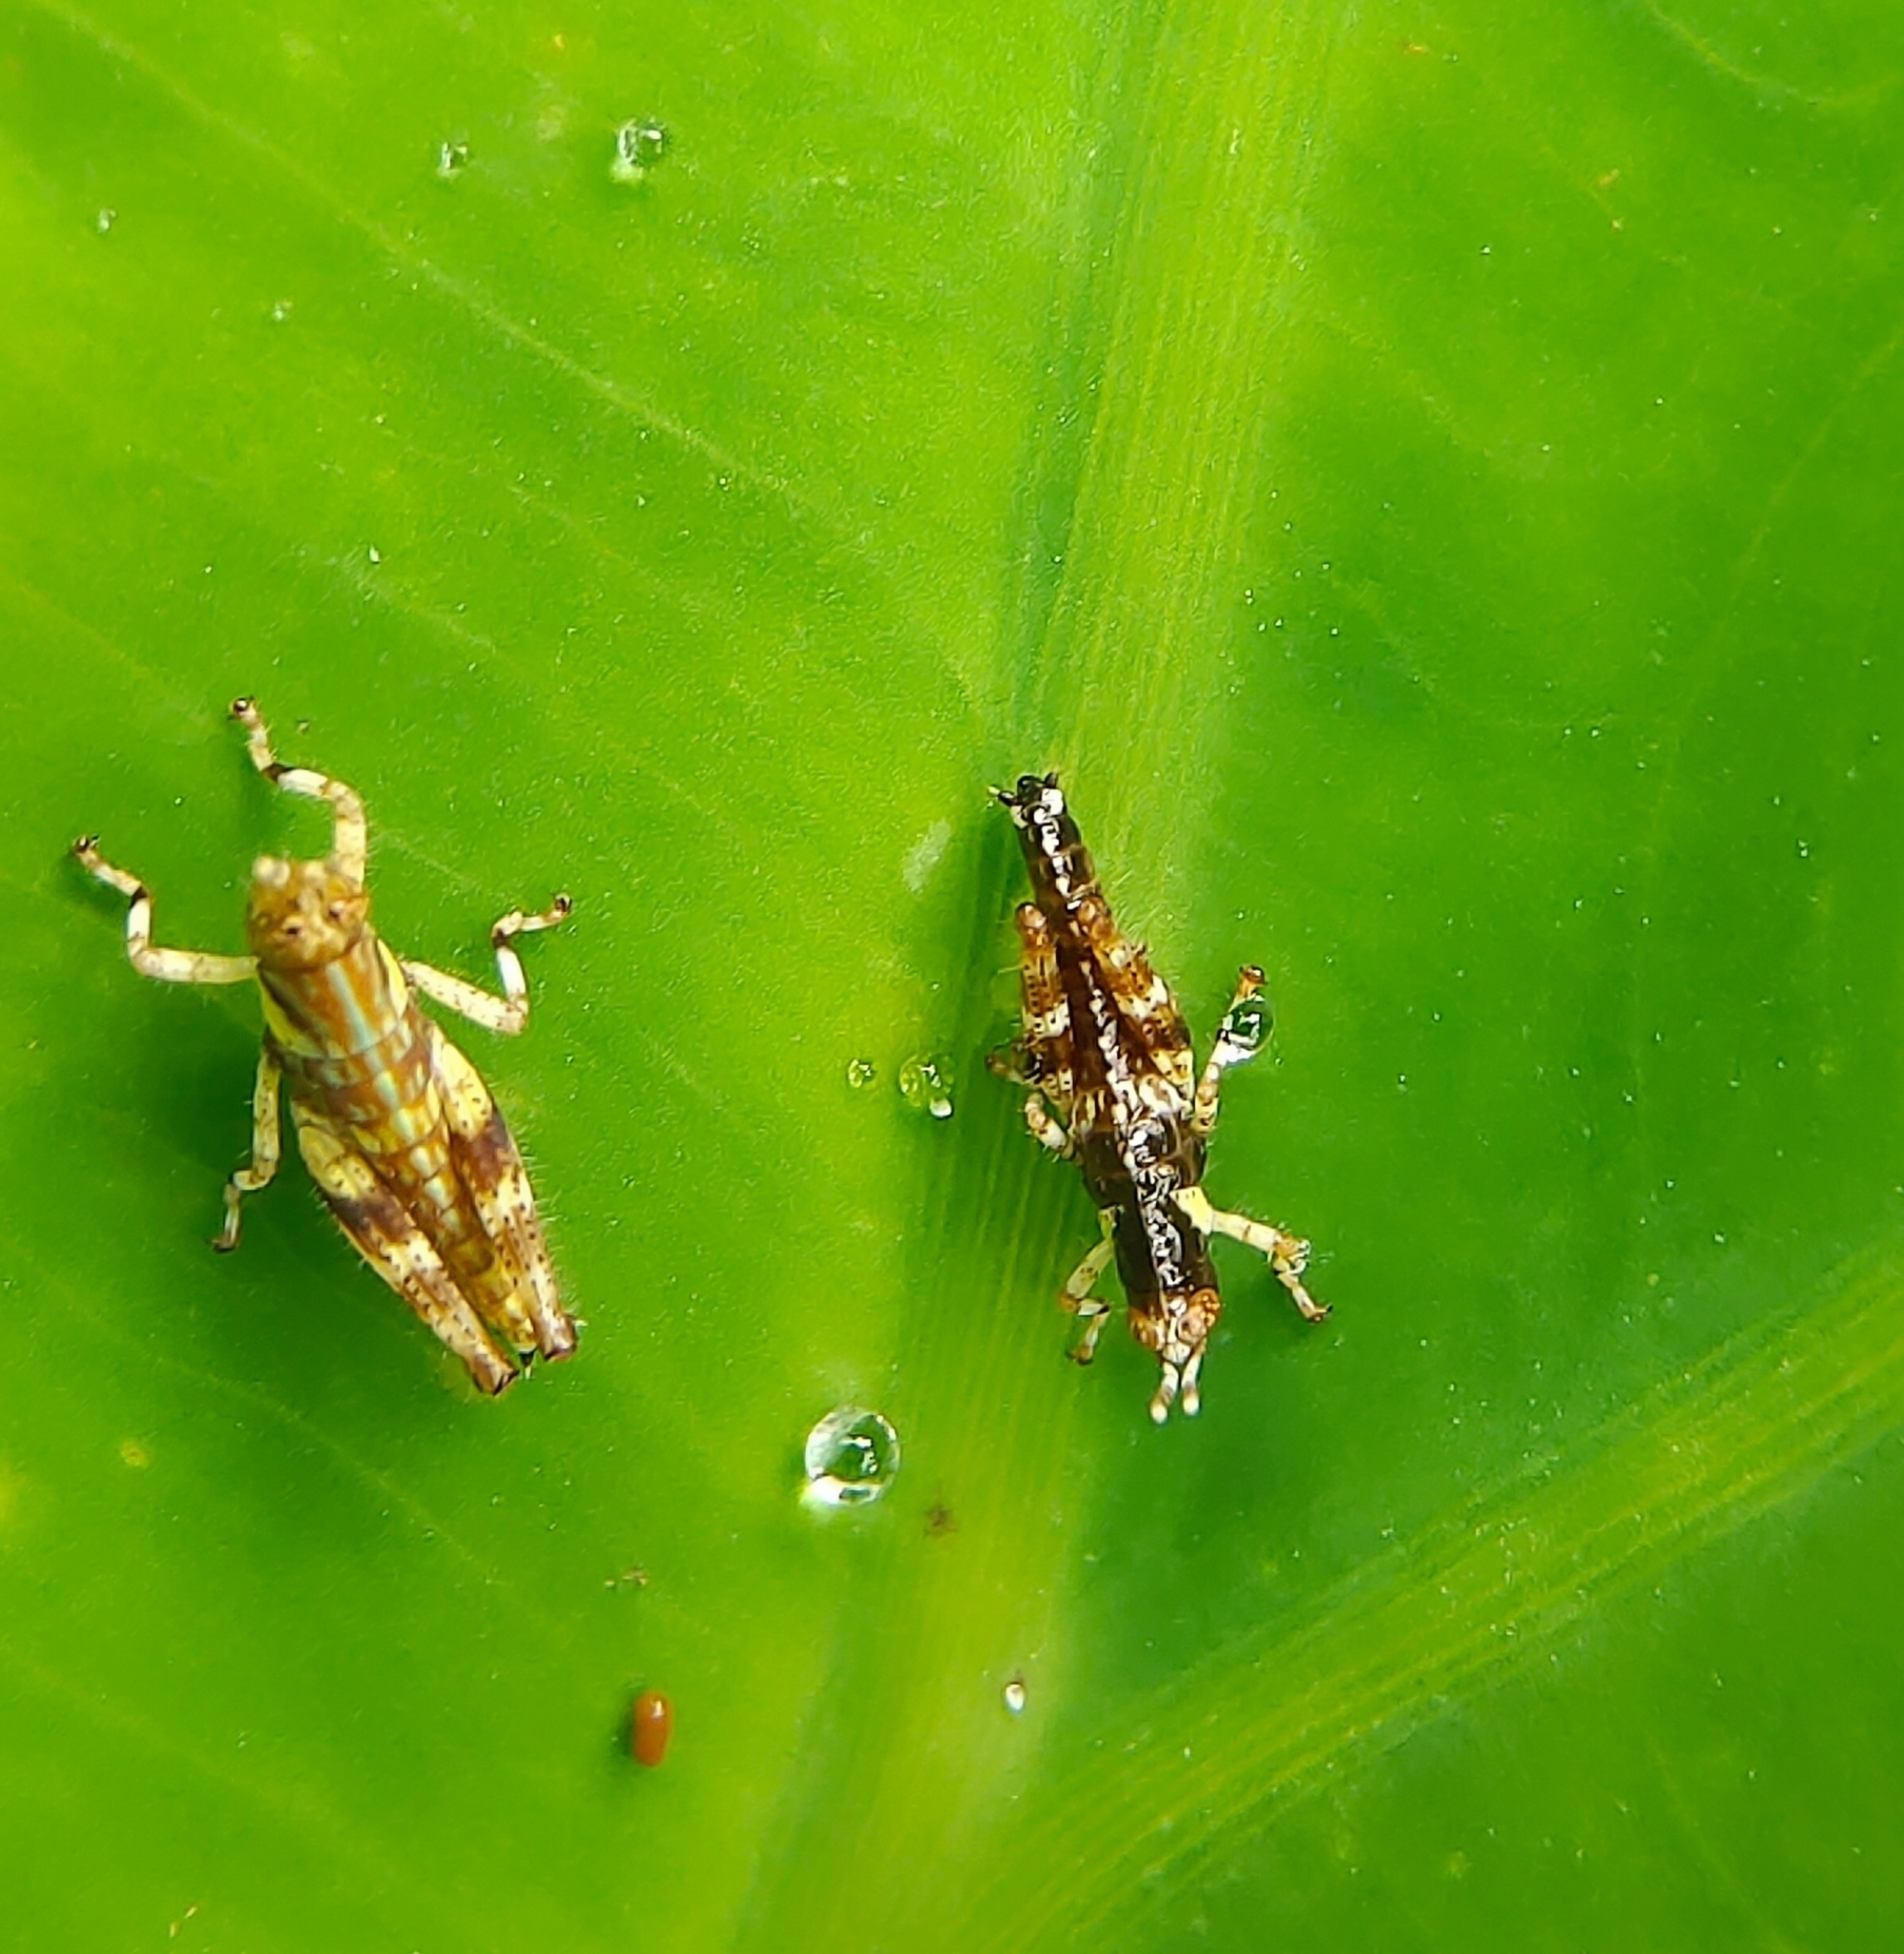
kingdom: Animalia
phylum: Arthropoda
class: Insecta
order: Orthoptera
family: Acrididae
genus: Gesonula
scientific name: Gesonula mundata
